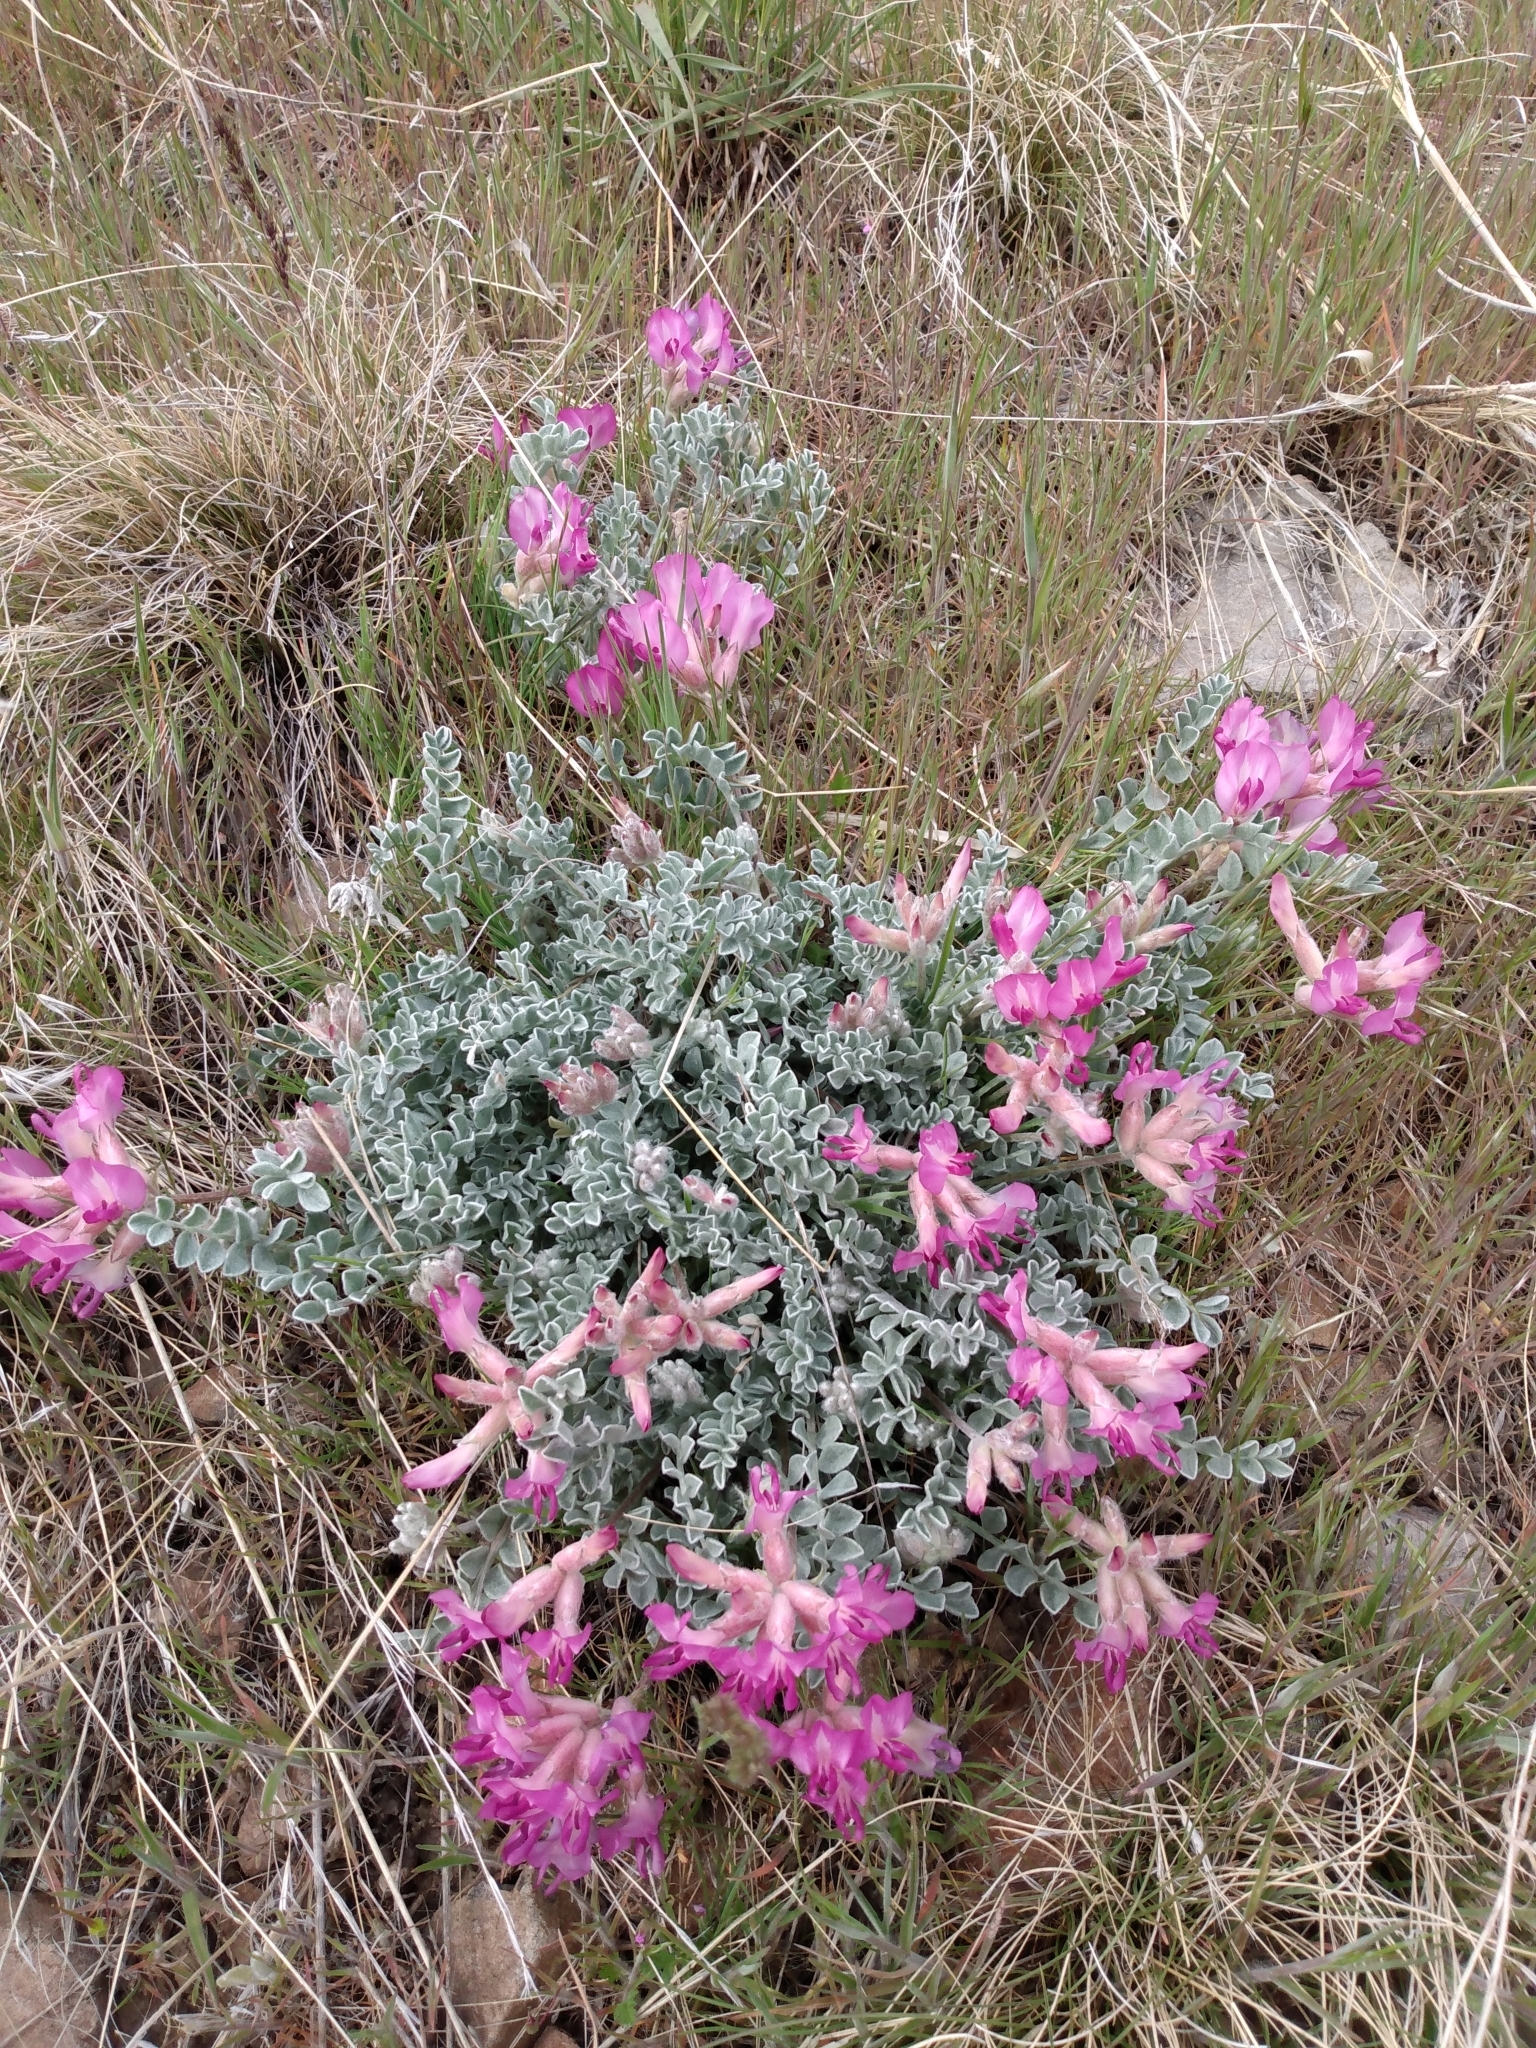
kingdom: Plantae
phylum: Tracheophyta
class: Magnoliopsida
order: Fabales
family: Fabaceae
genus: Astragalus
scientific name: Astragalus utahensis
